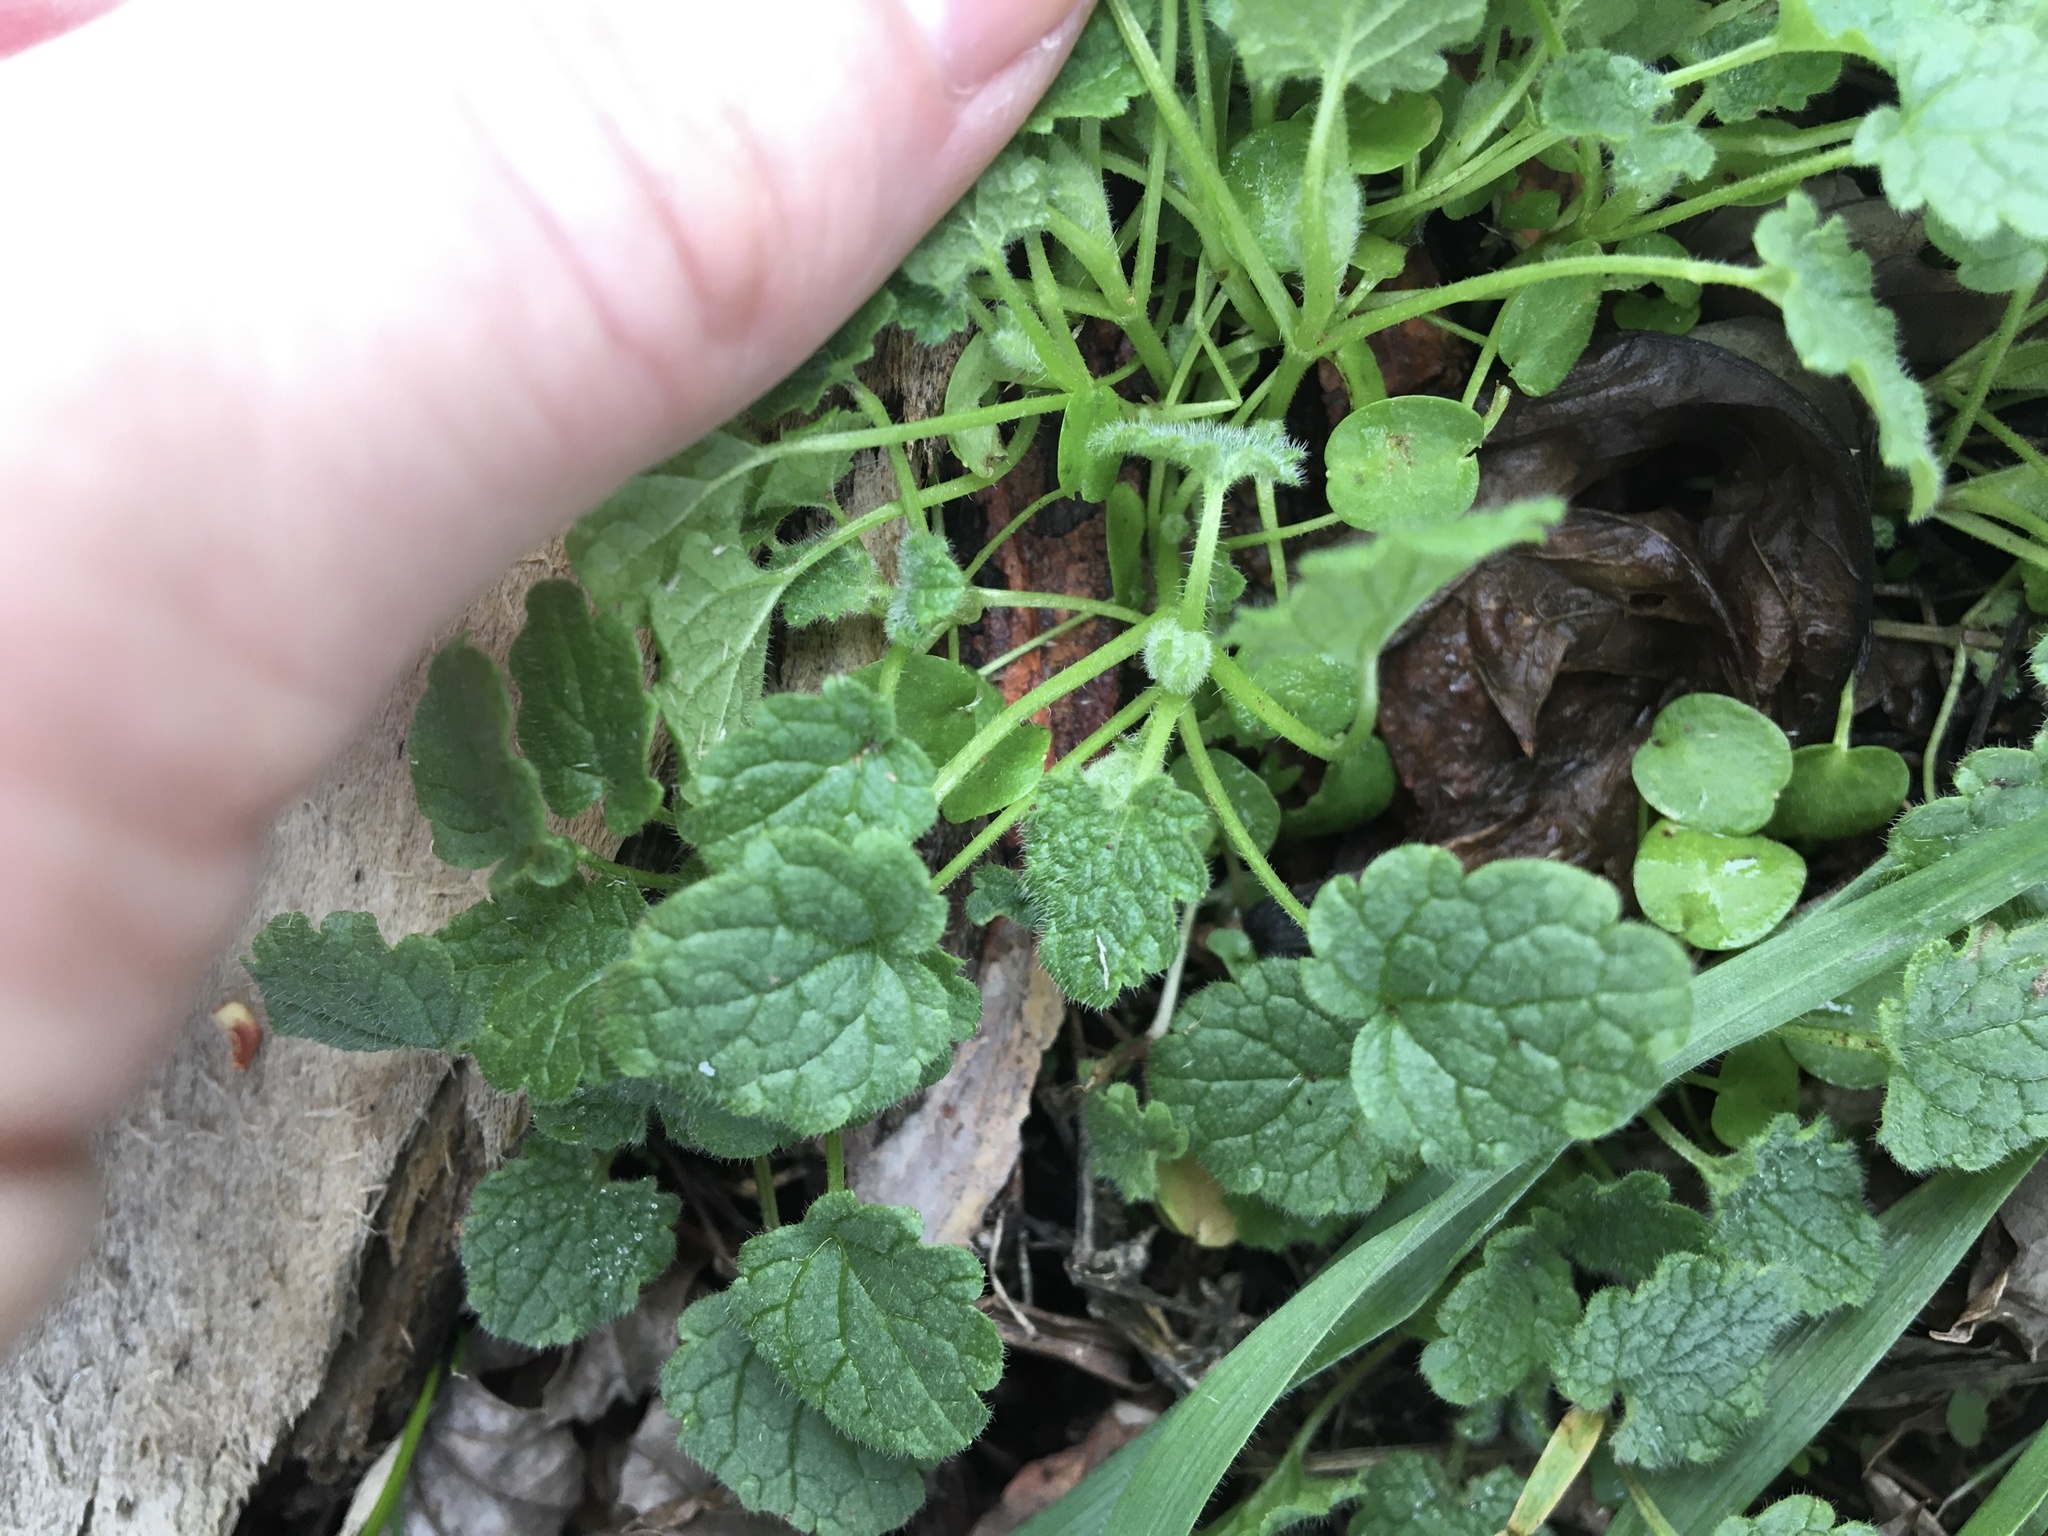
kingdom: Plantae
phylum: Tracheophyta
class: Magnoliopsida
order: Lamiales
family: Lamiaceae
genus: Lamium
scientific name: Lamium purpureum
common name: Red dead-nettle
